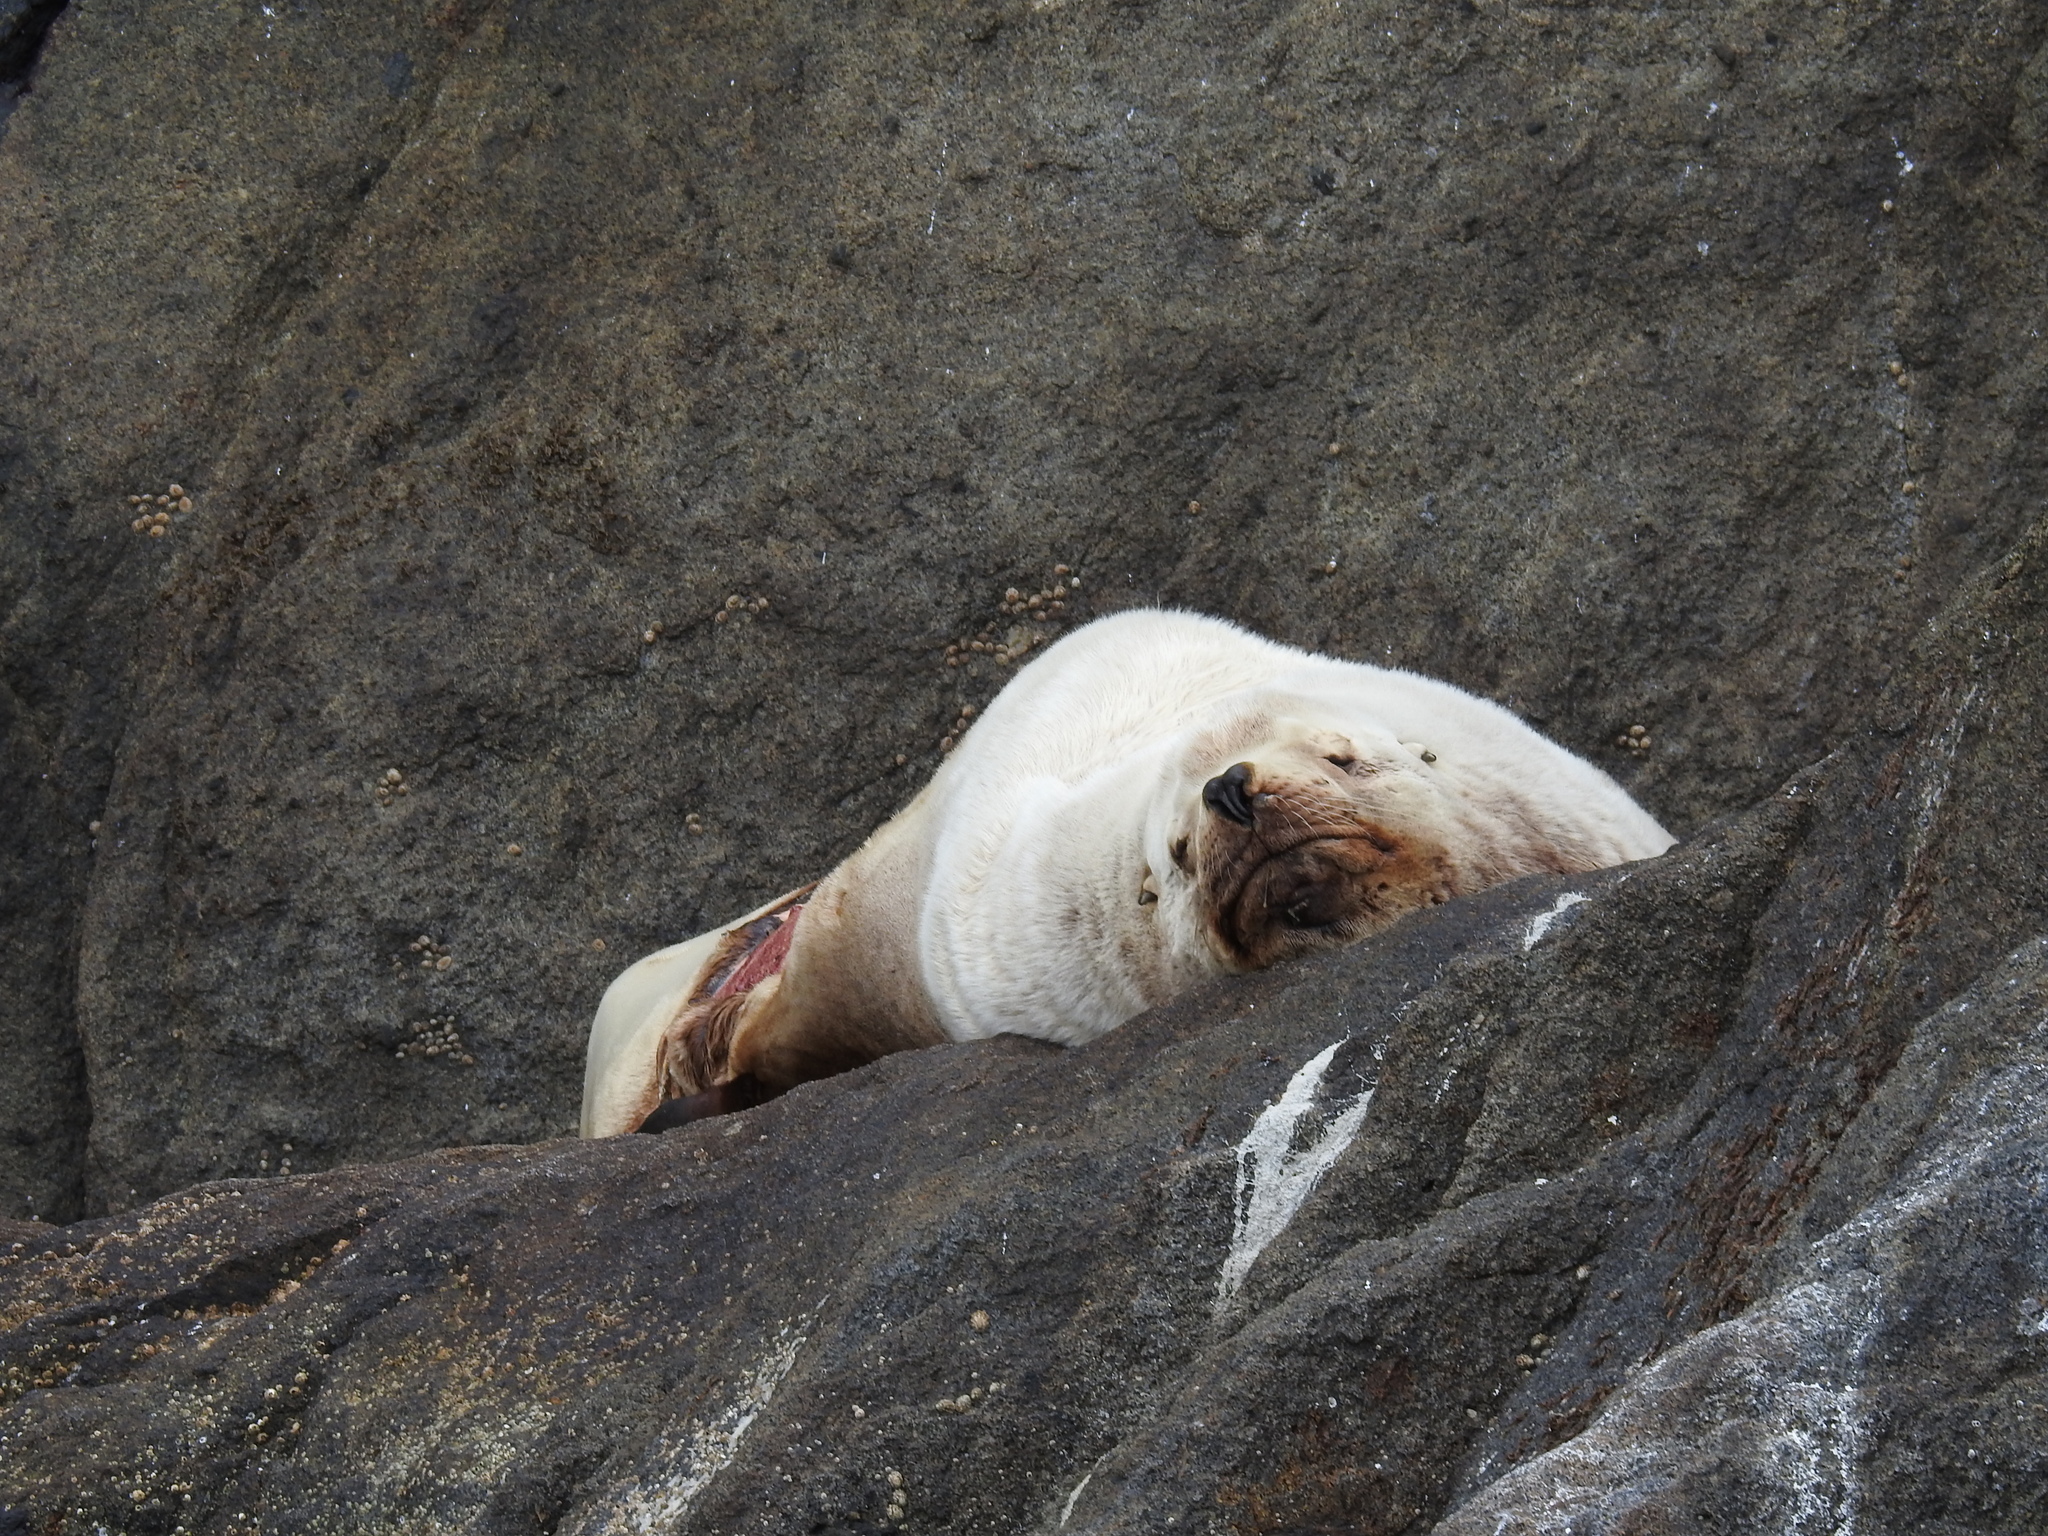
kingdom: Animalia
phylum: Chordata
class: Mammalia
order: Carnivora
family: Otariidae
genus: Eumetopias
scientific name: Eumetopias jubatus
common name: Steller sea lion
